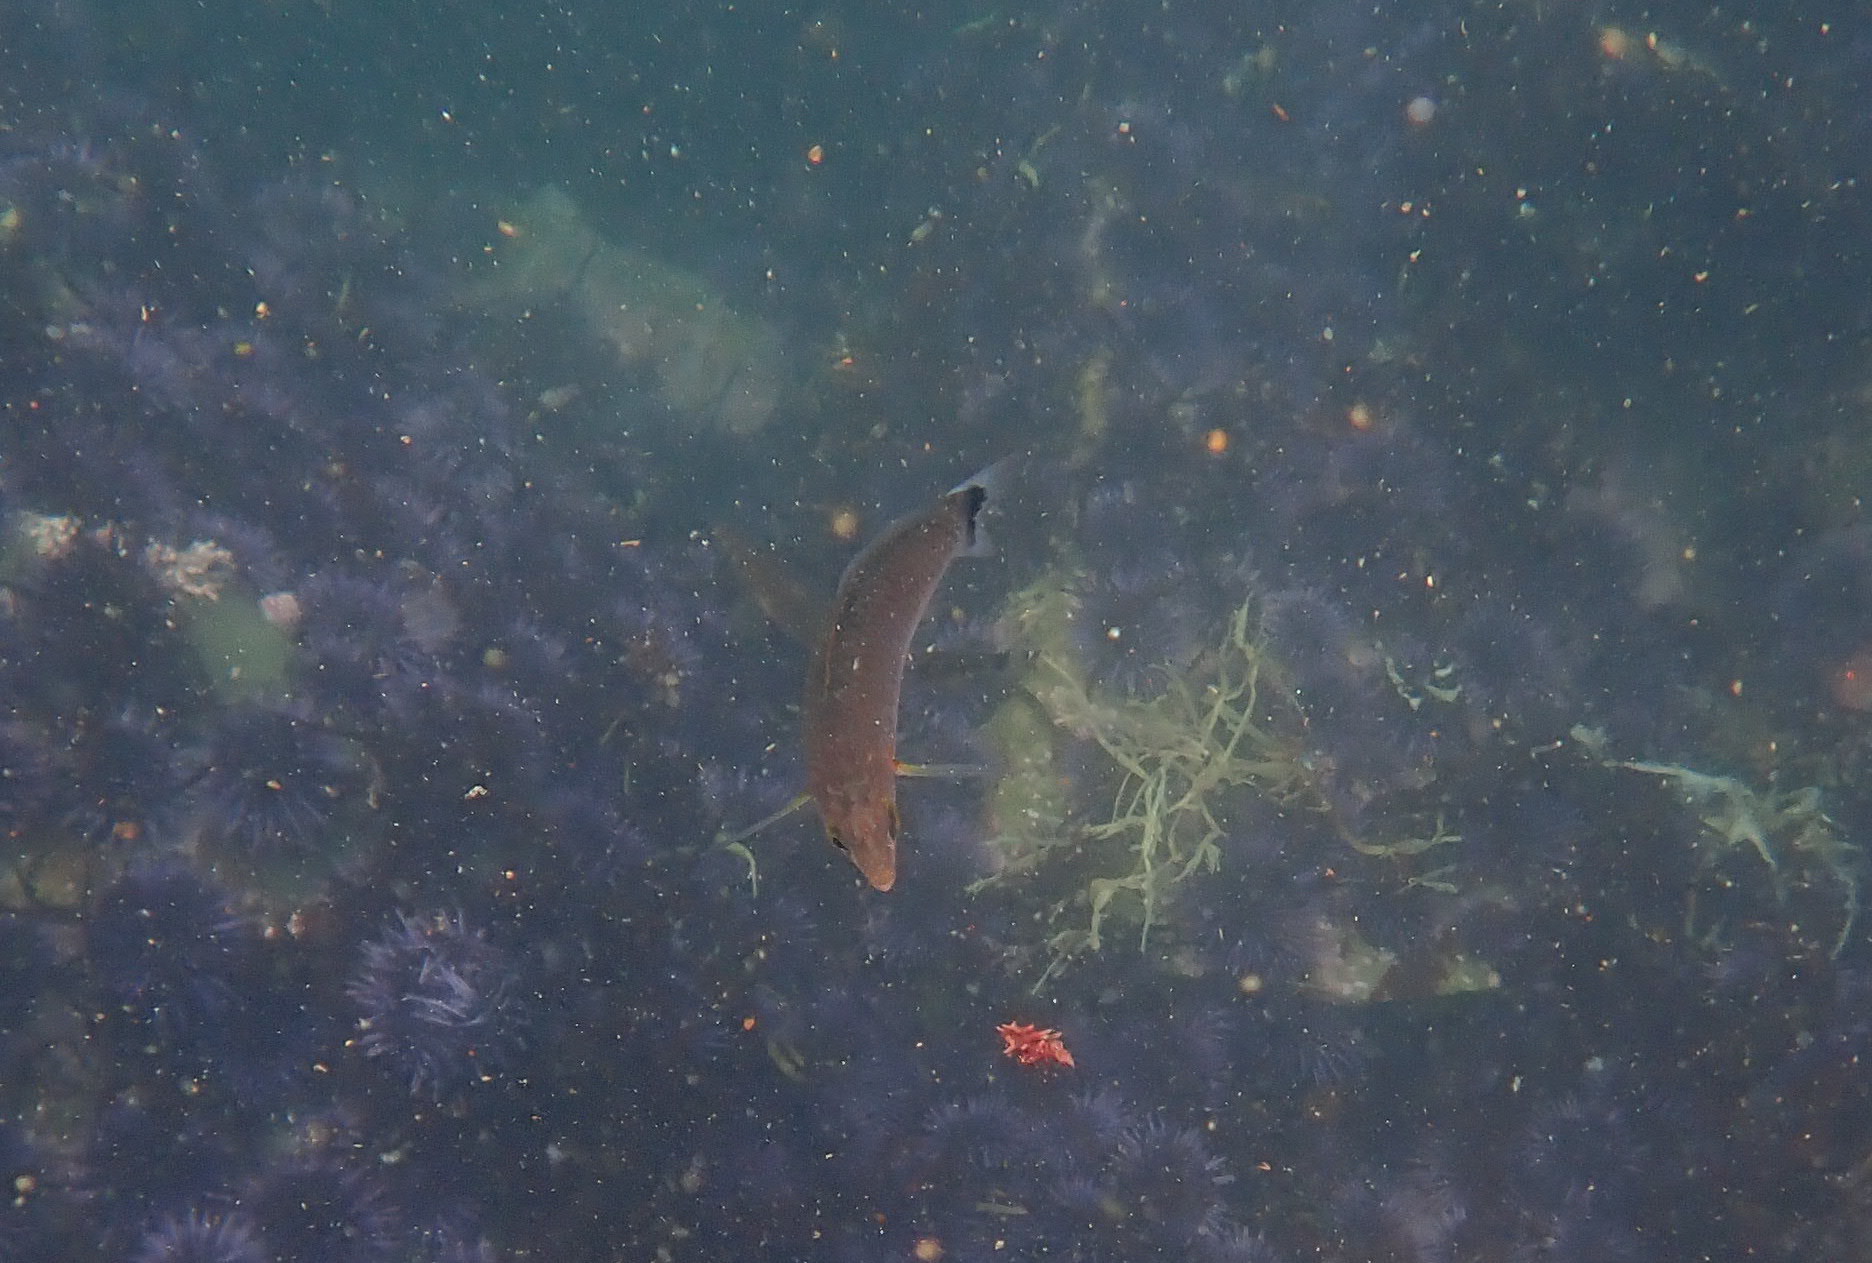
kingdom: Animalia
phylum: Chordata
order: Perciformes
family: Labridae
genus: Oxyjulis
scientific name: Oxyjulis californica
